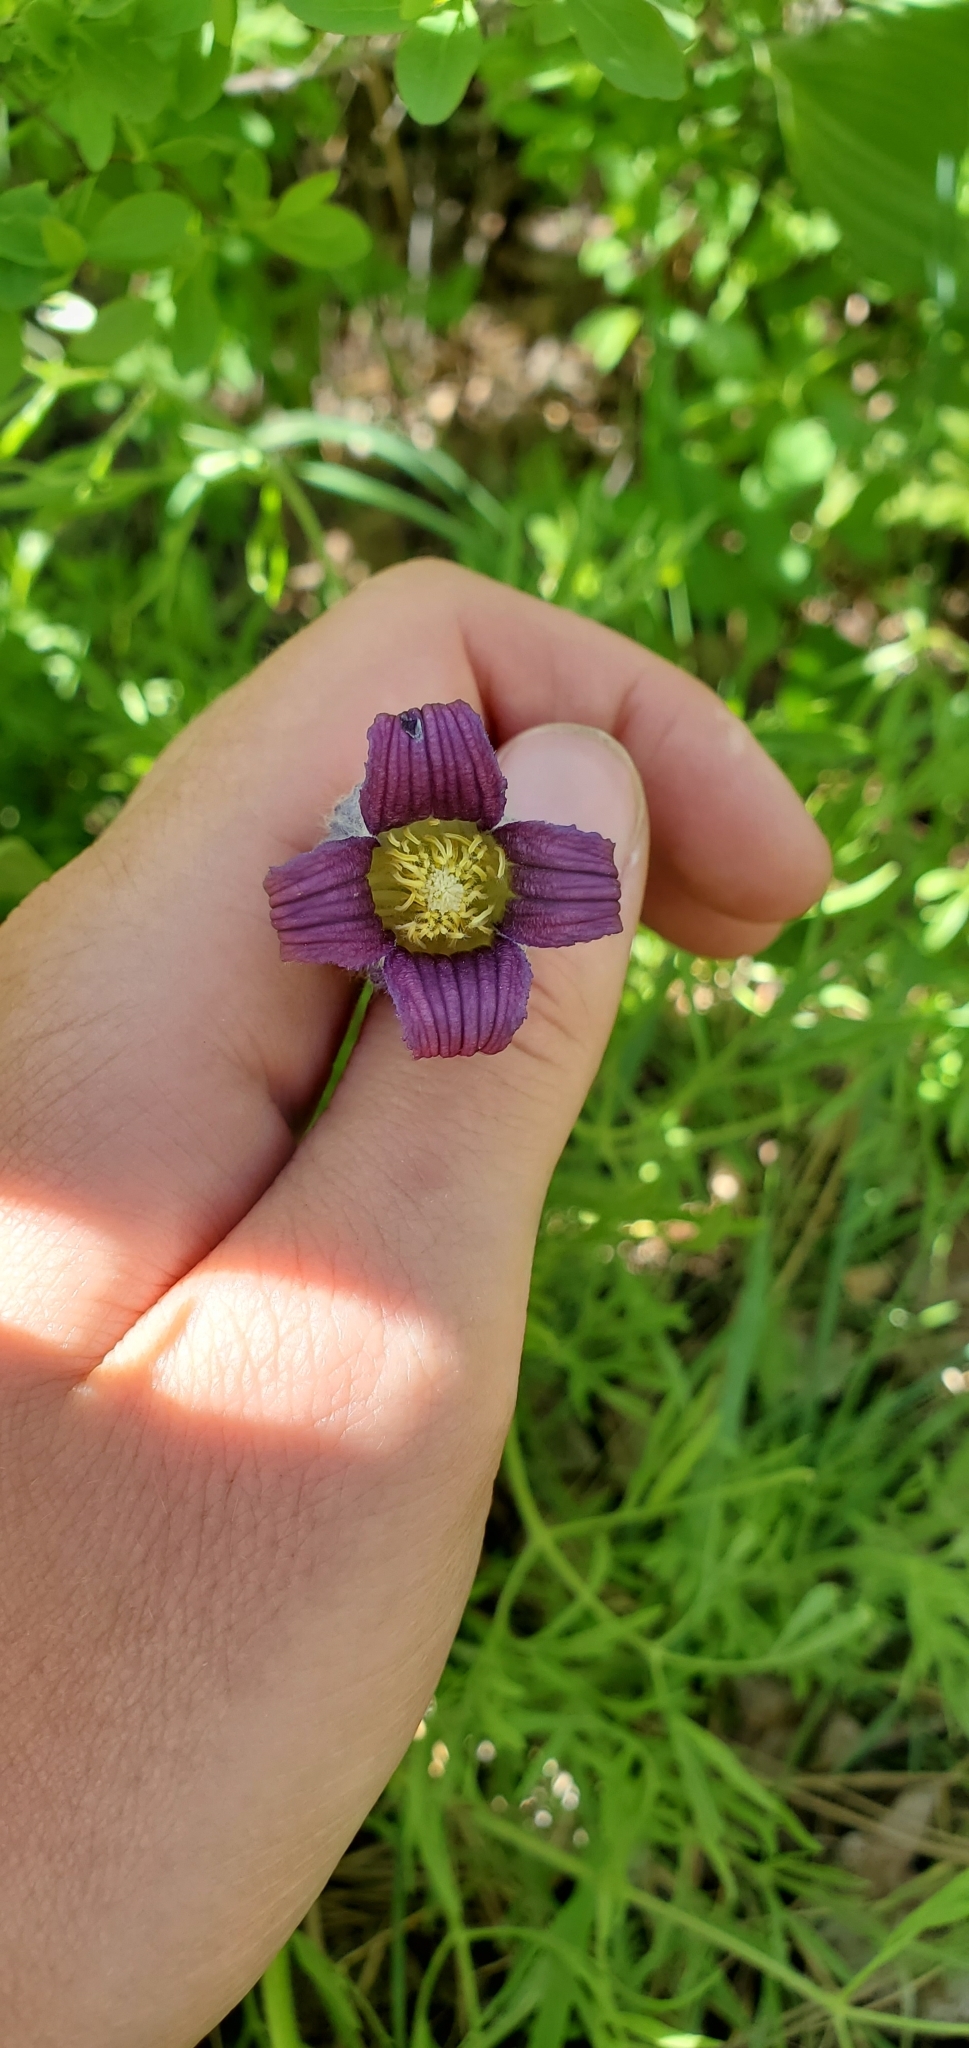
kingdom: Plantae
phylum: Tracheophyta
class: Magnoliopsida
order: Ranunculales
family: Ranunculaceae
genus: Clematis
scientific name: Clematis hirsutissima
